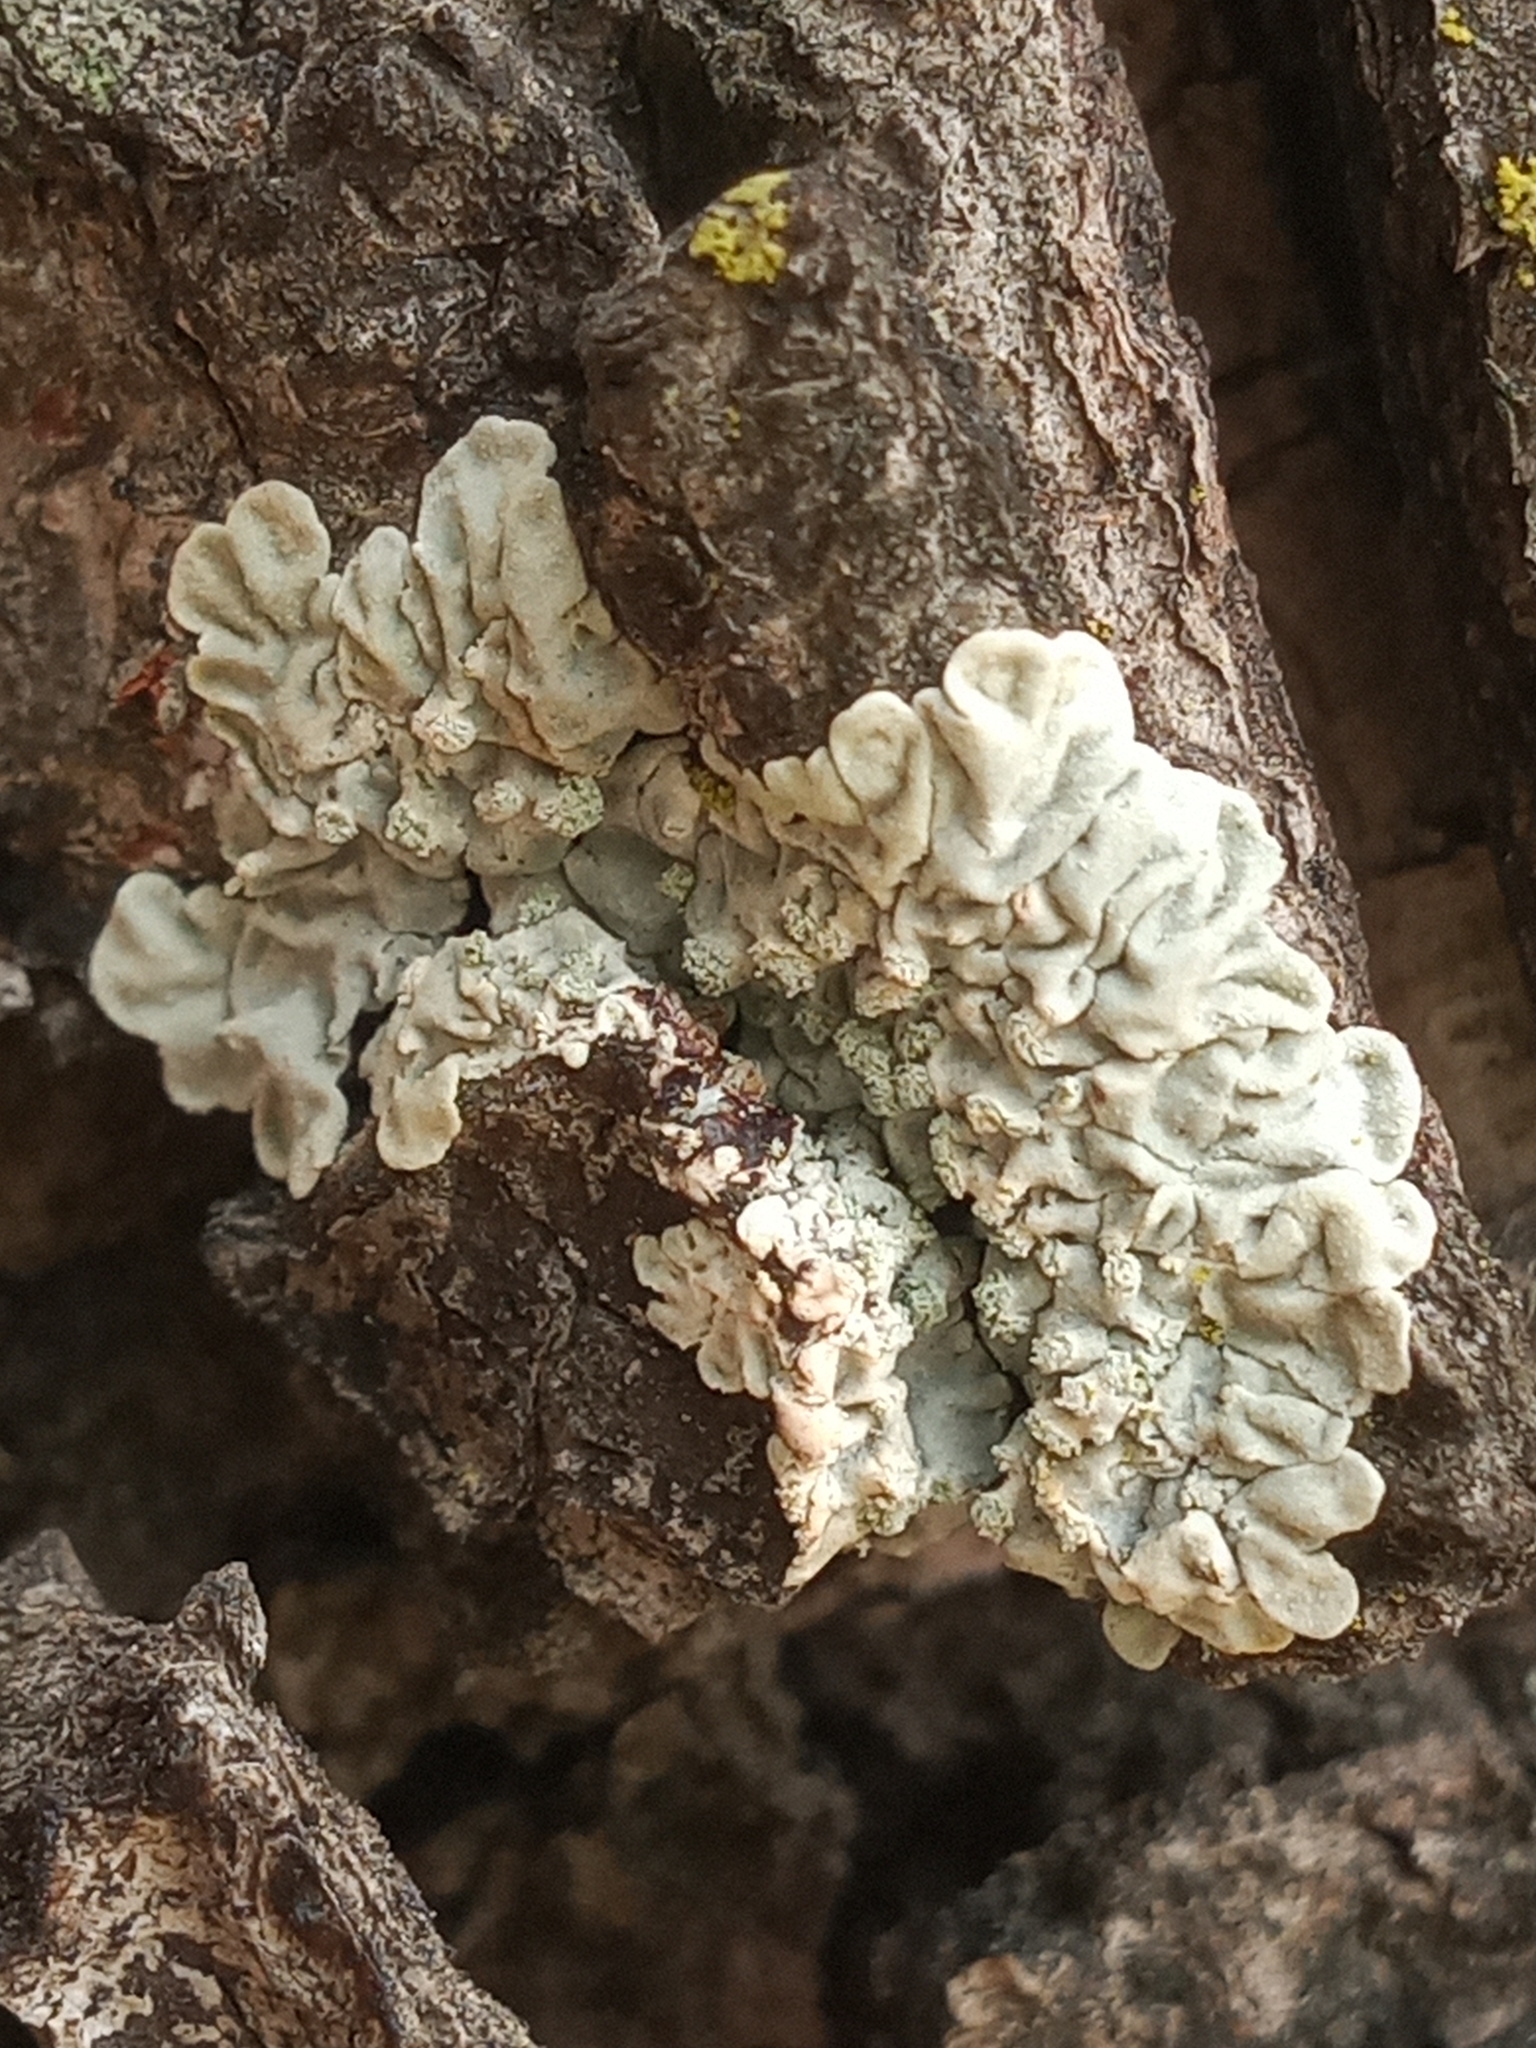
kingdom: Fungi
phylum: Ascomycota
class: Lecanoromycetes
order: Caliciales
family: Caliciaceae
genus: Dirinaria
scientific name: Dirinaria applanata
